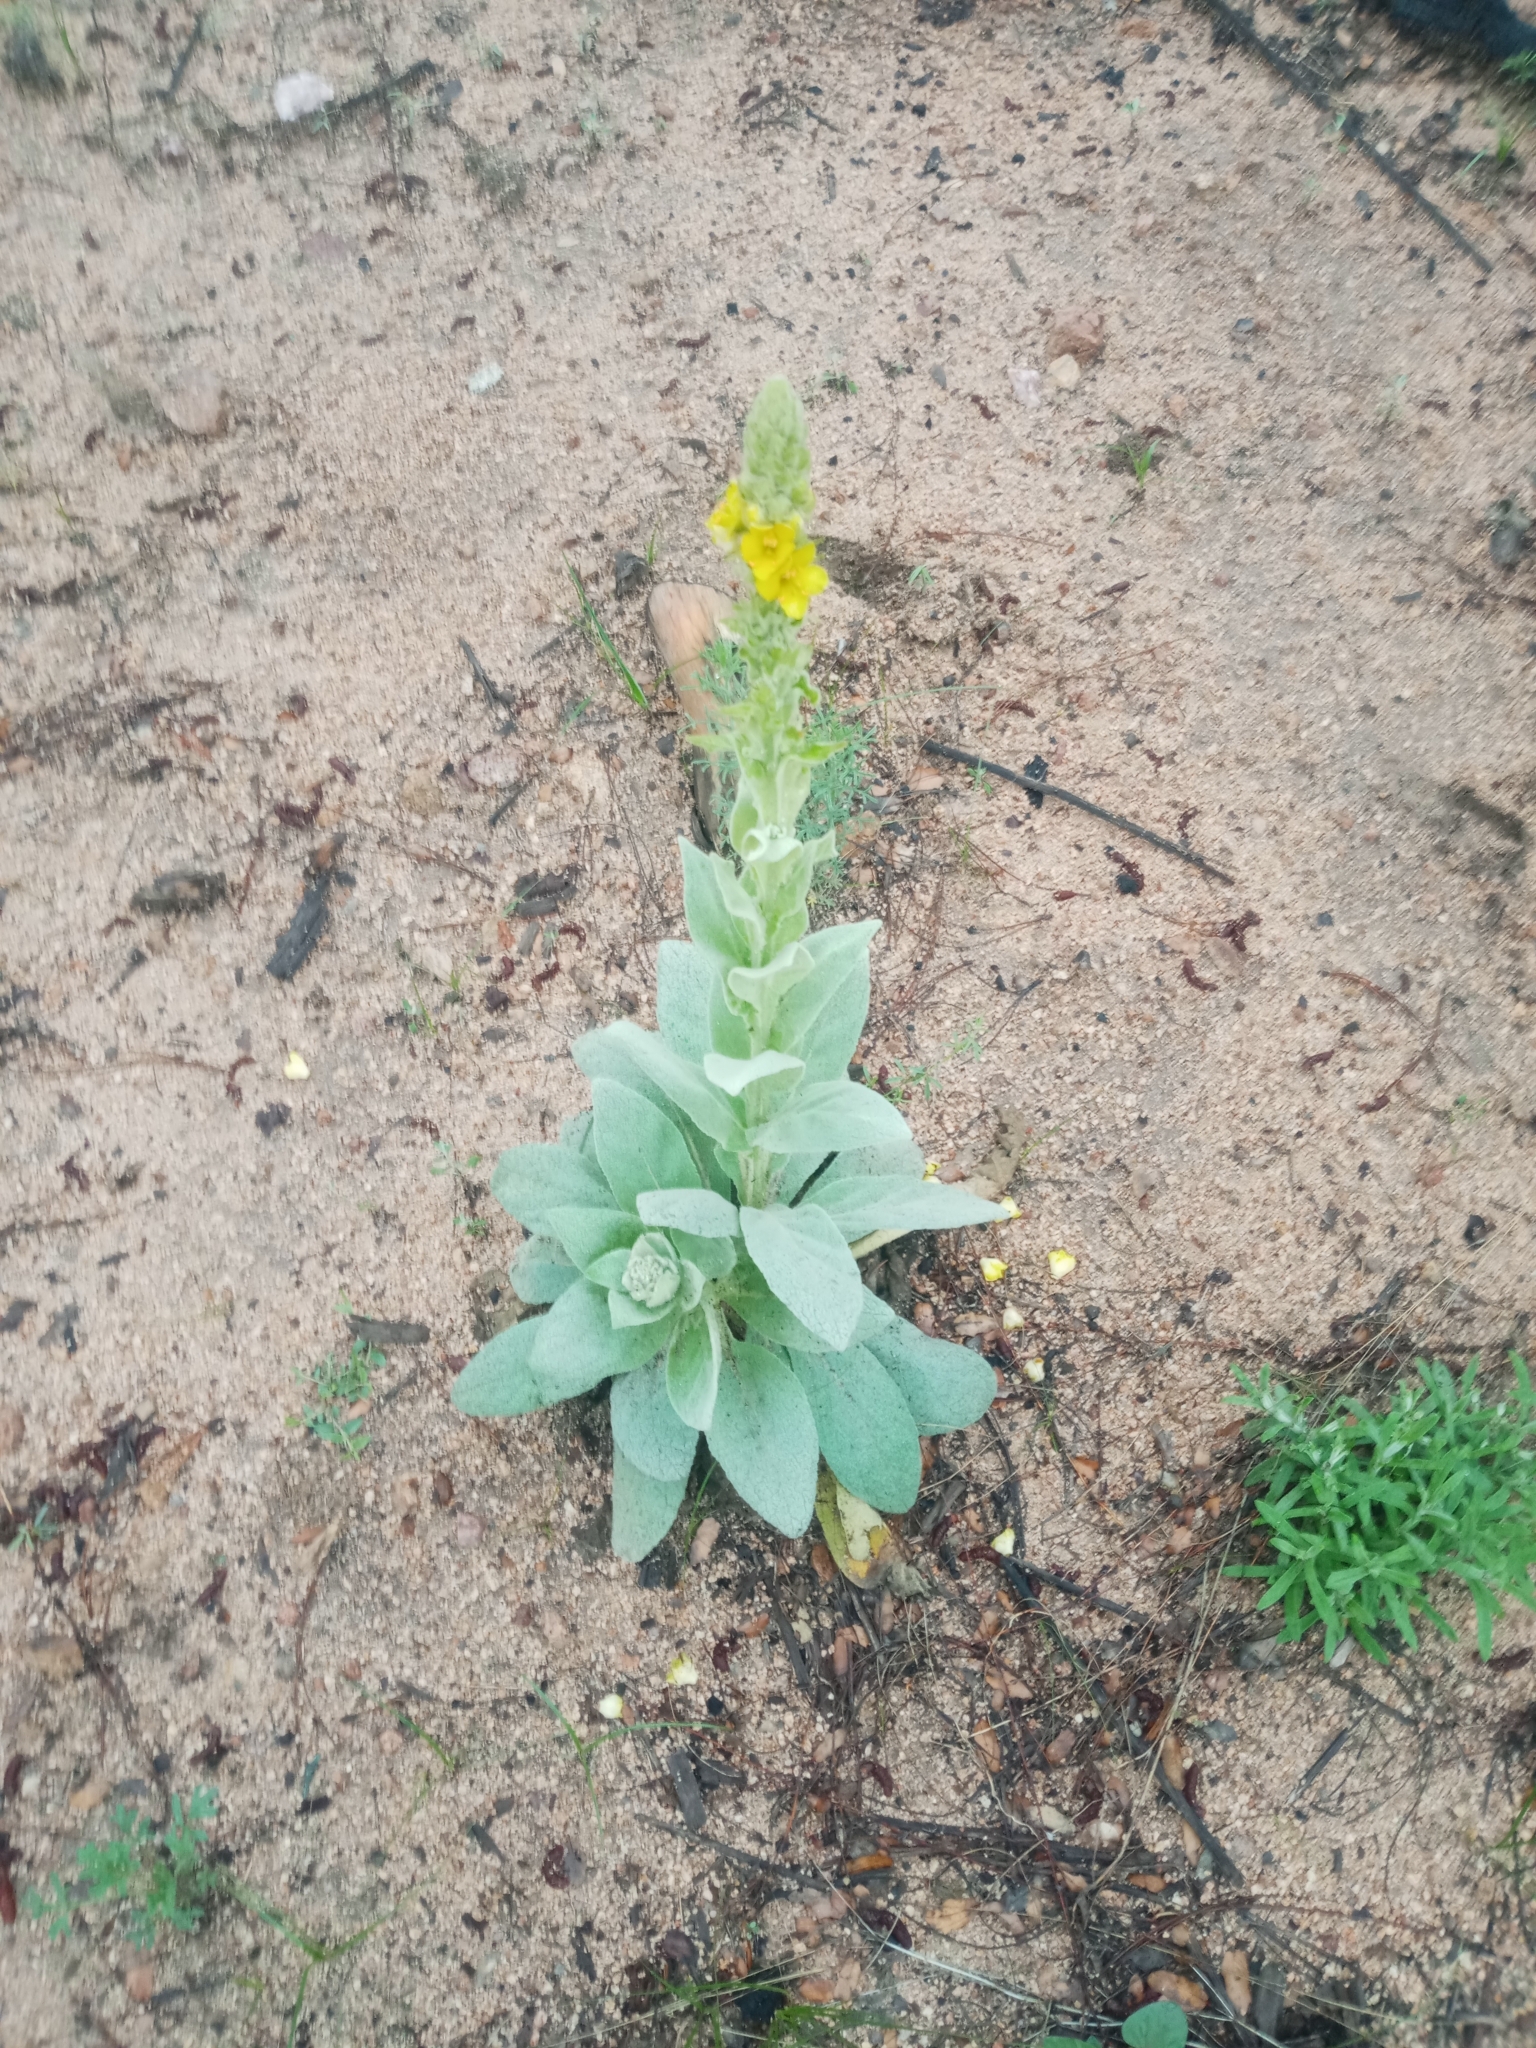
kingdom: Plantae
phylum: Tracheophyta
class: Magnoliopsida
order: Lamiales
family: Scrophulariaceae
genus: Verbascum
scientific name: Verbascum thapsus
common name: Common mullein
